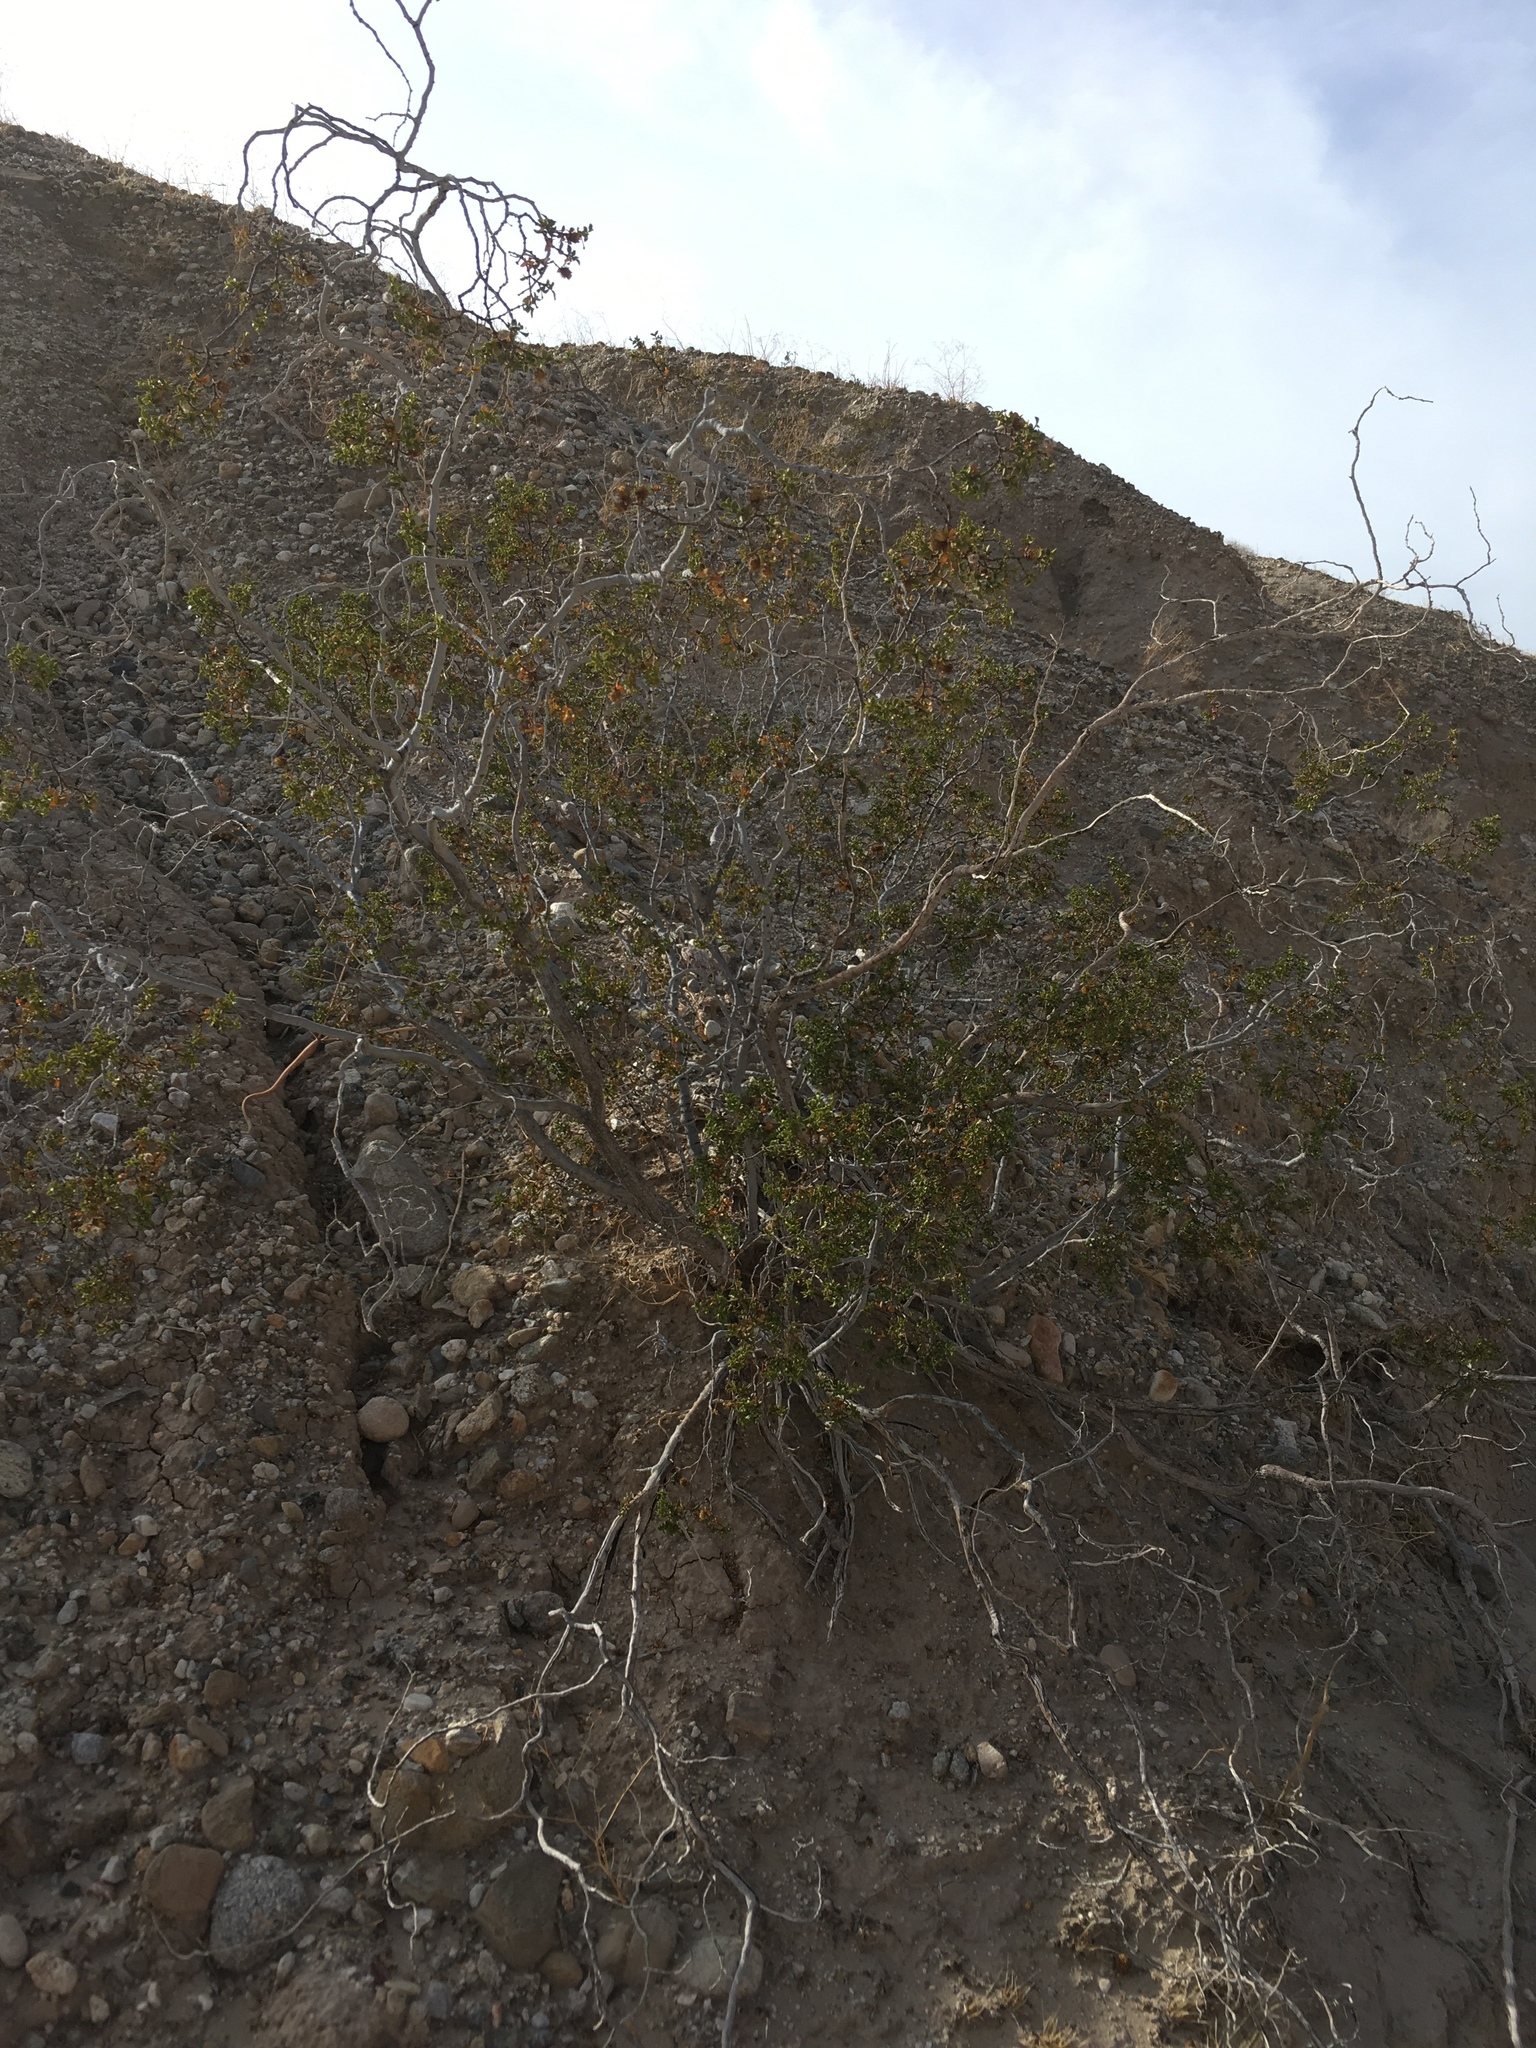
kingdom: Plantae
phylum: Tracheophyta
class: Magnoliopsida
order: Zygophyllales
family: Zygophyllaceae
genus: Larrea
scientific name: Larrea tridentata
